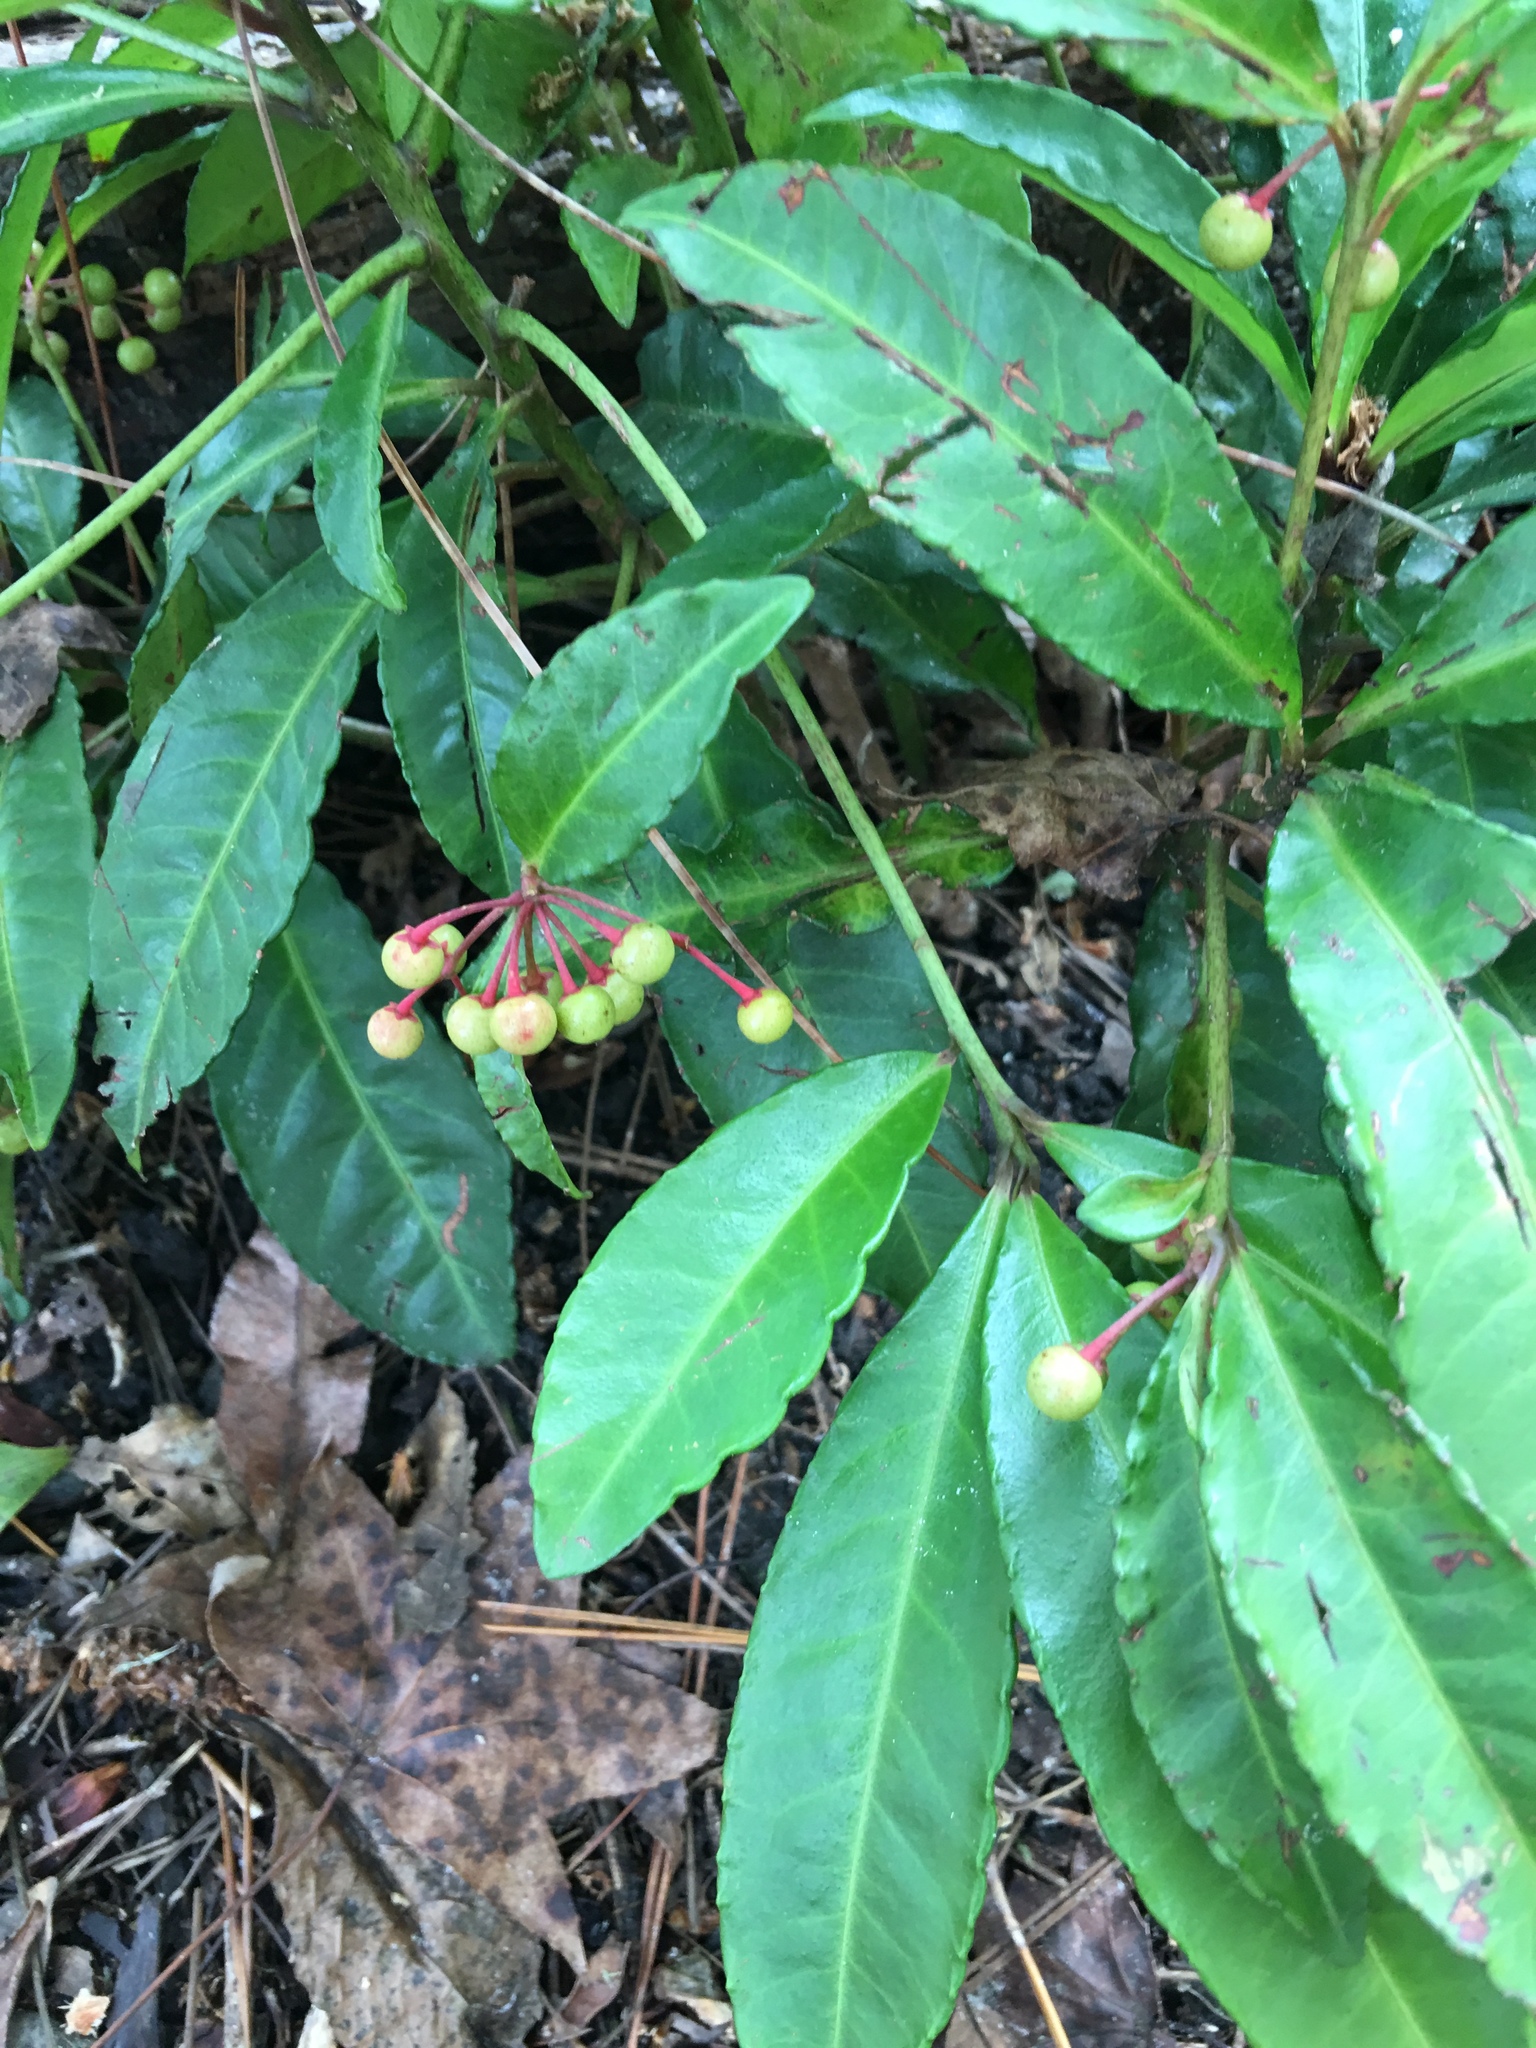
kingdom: Plantae
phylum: Tracheophyta
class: Magnoliopsida
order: Ericales
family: Primulaceae
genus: Ardisia
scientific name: Ardisia crenata
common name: Hen's eyes
